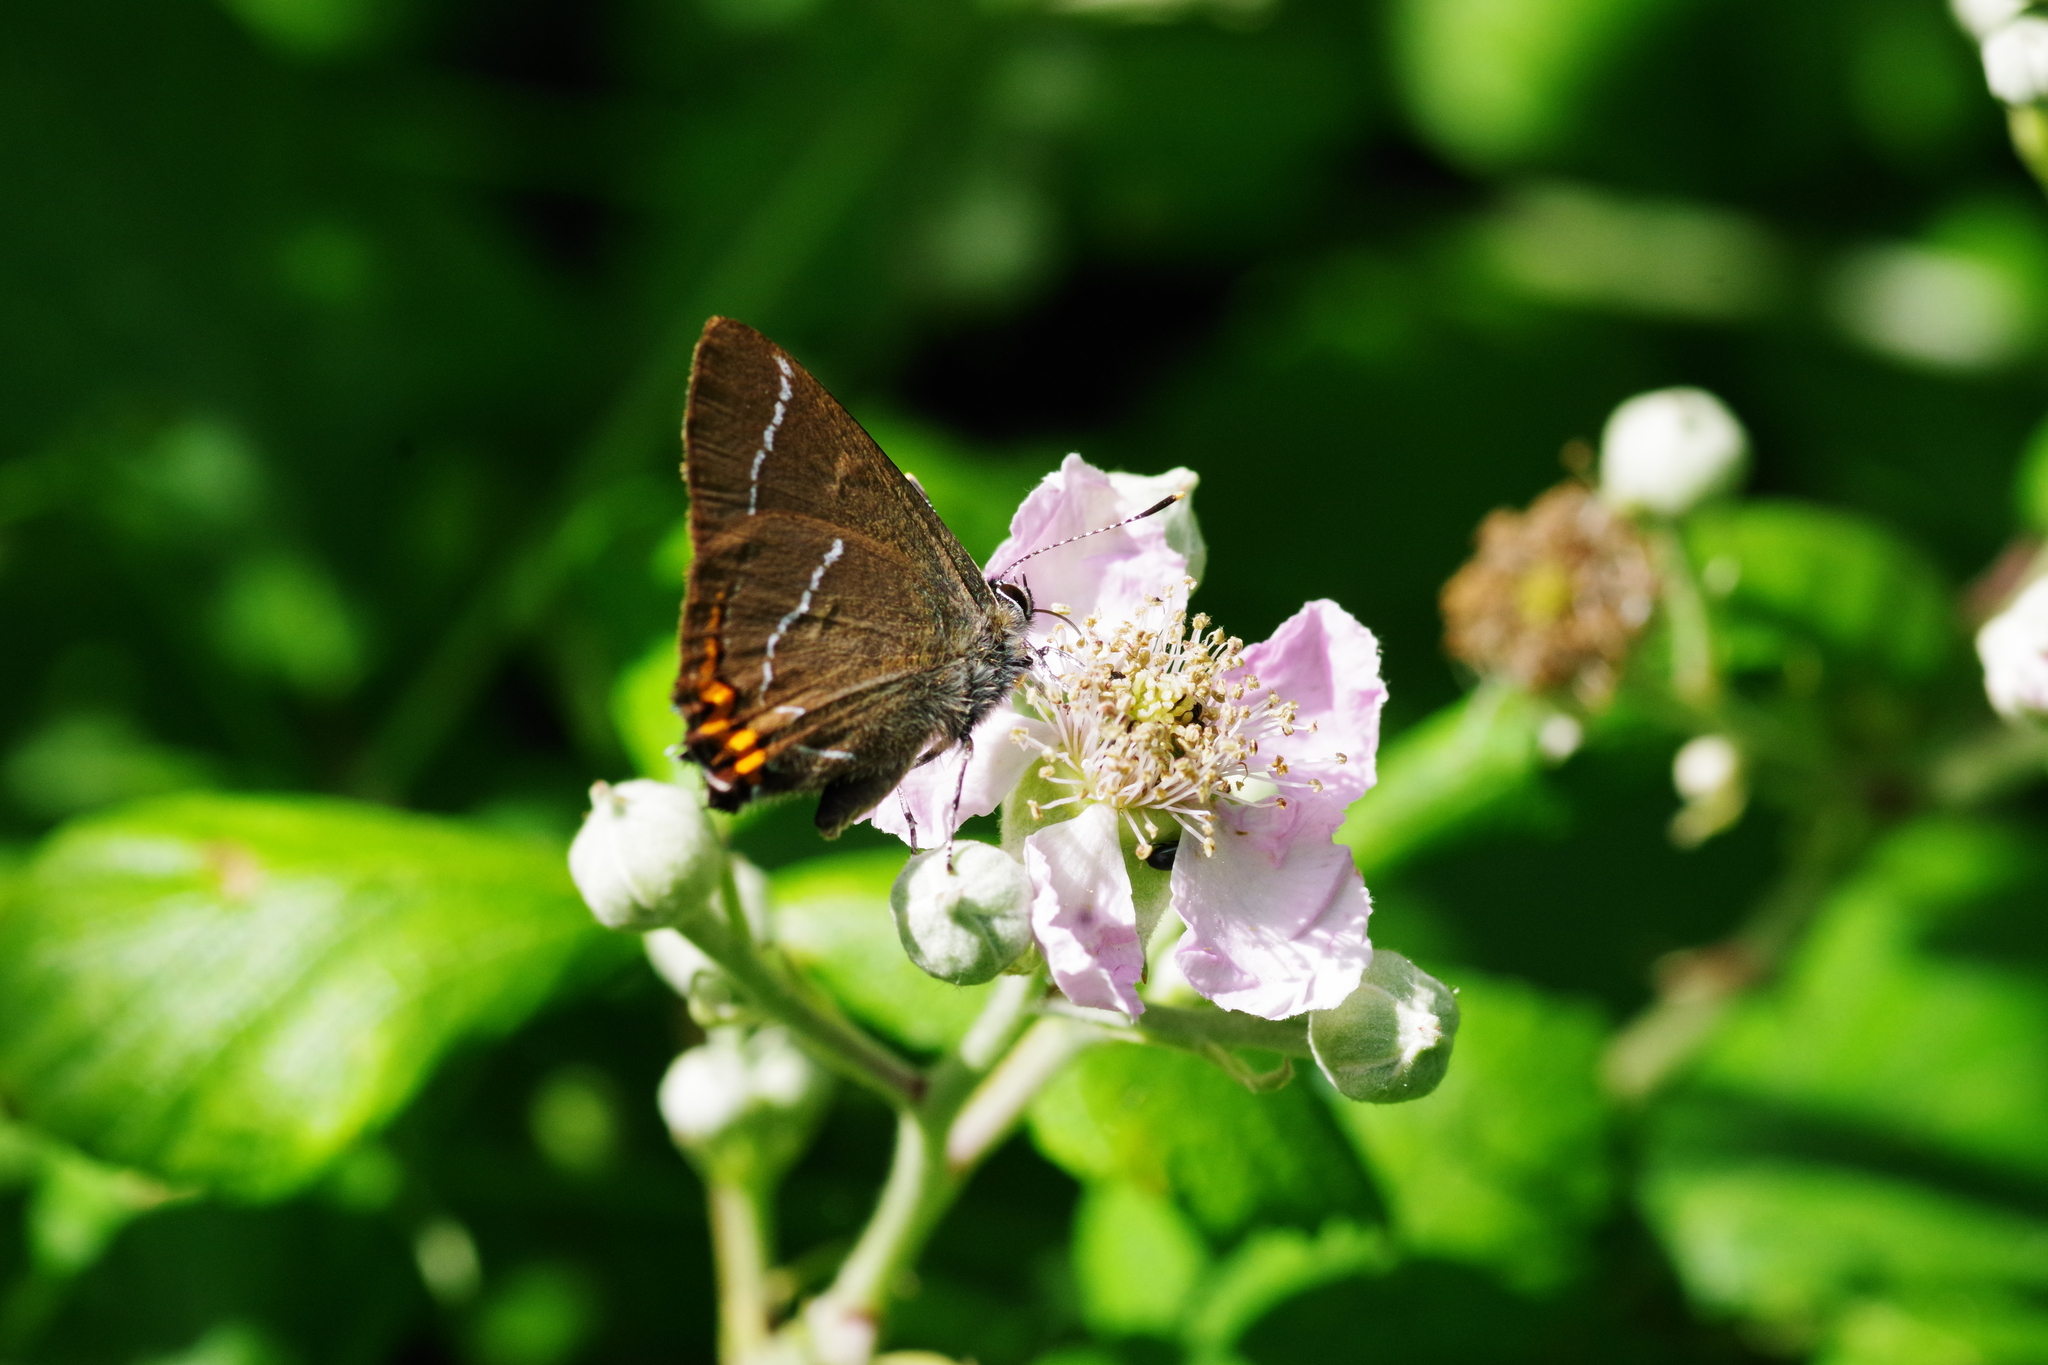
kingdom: Animalia
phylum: Arthropoda
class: Insecta
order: Lepidoptera
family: Lycaenidae
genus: Satyrium
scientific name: Satyrium w-album
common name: White-letter hairstreak
